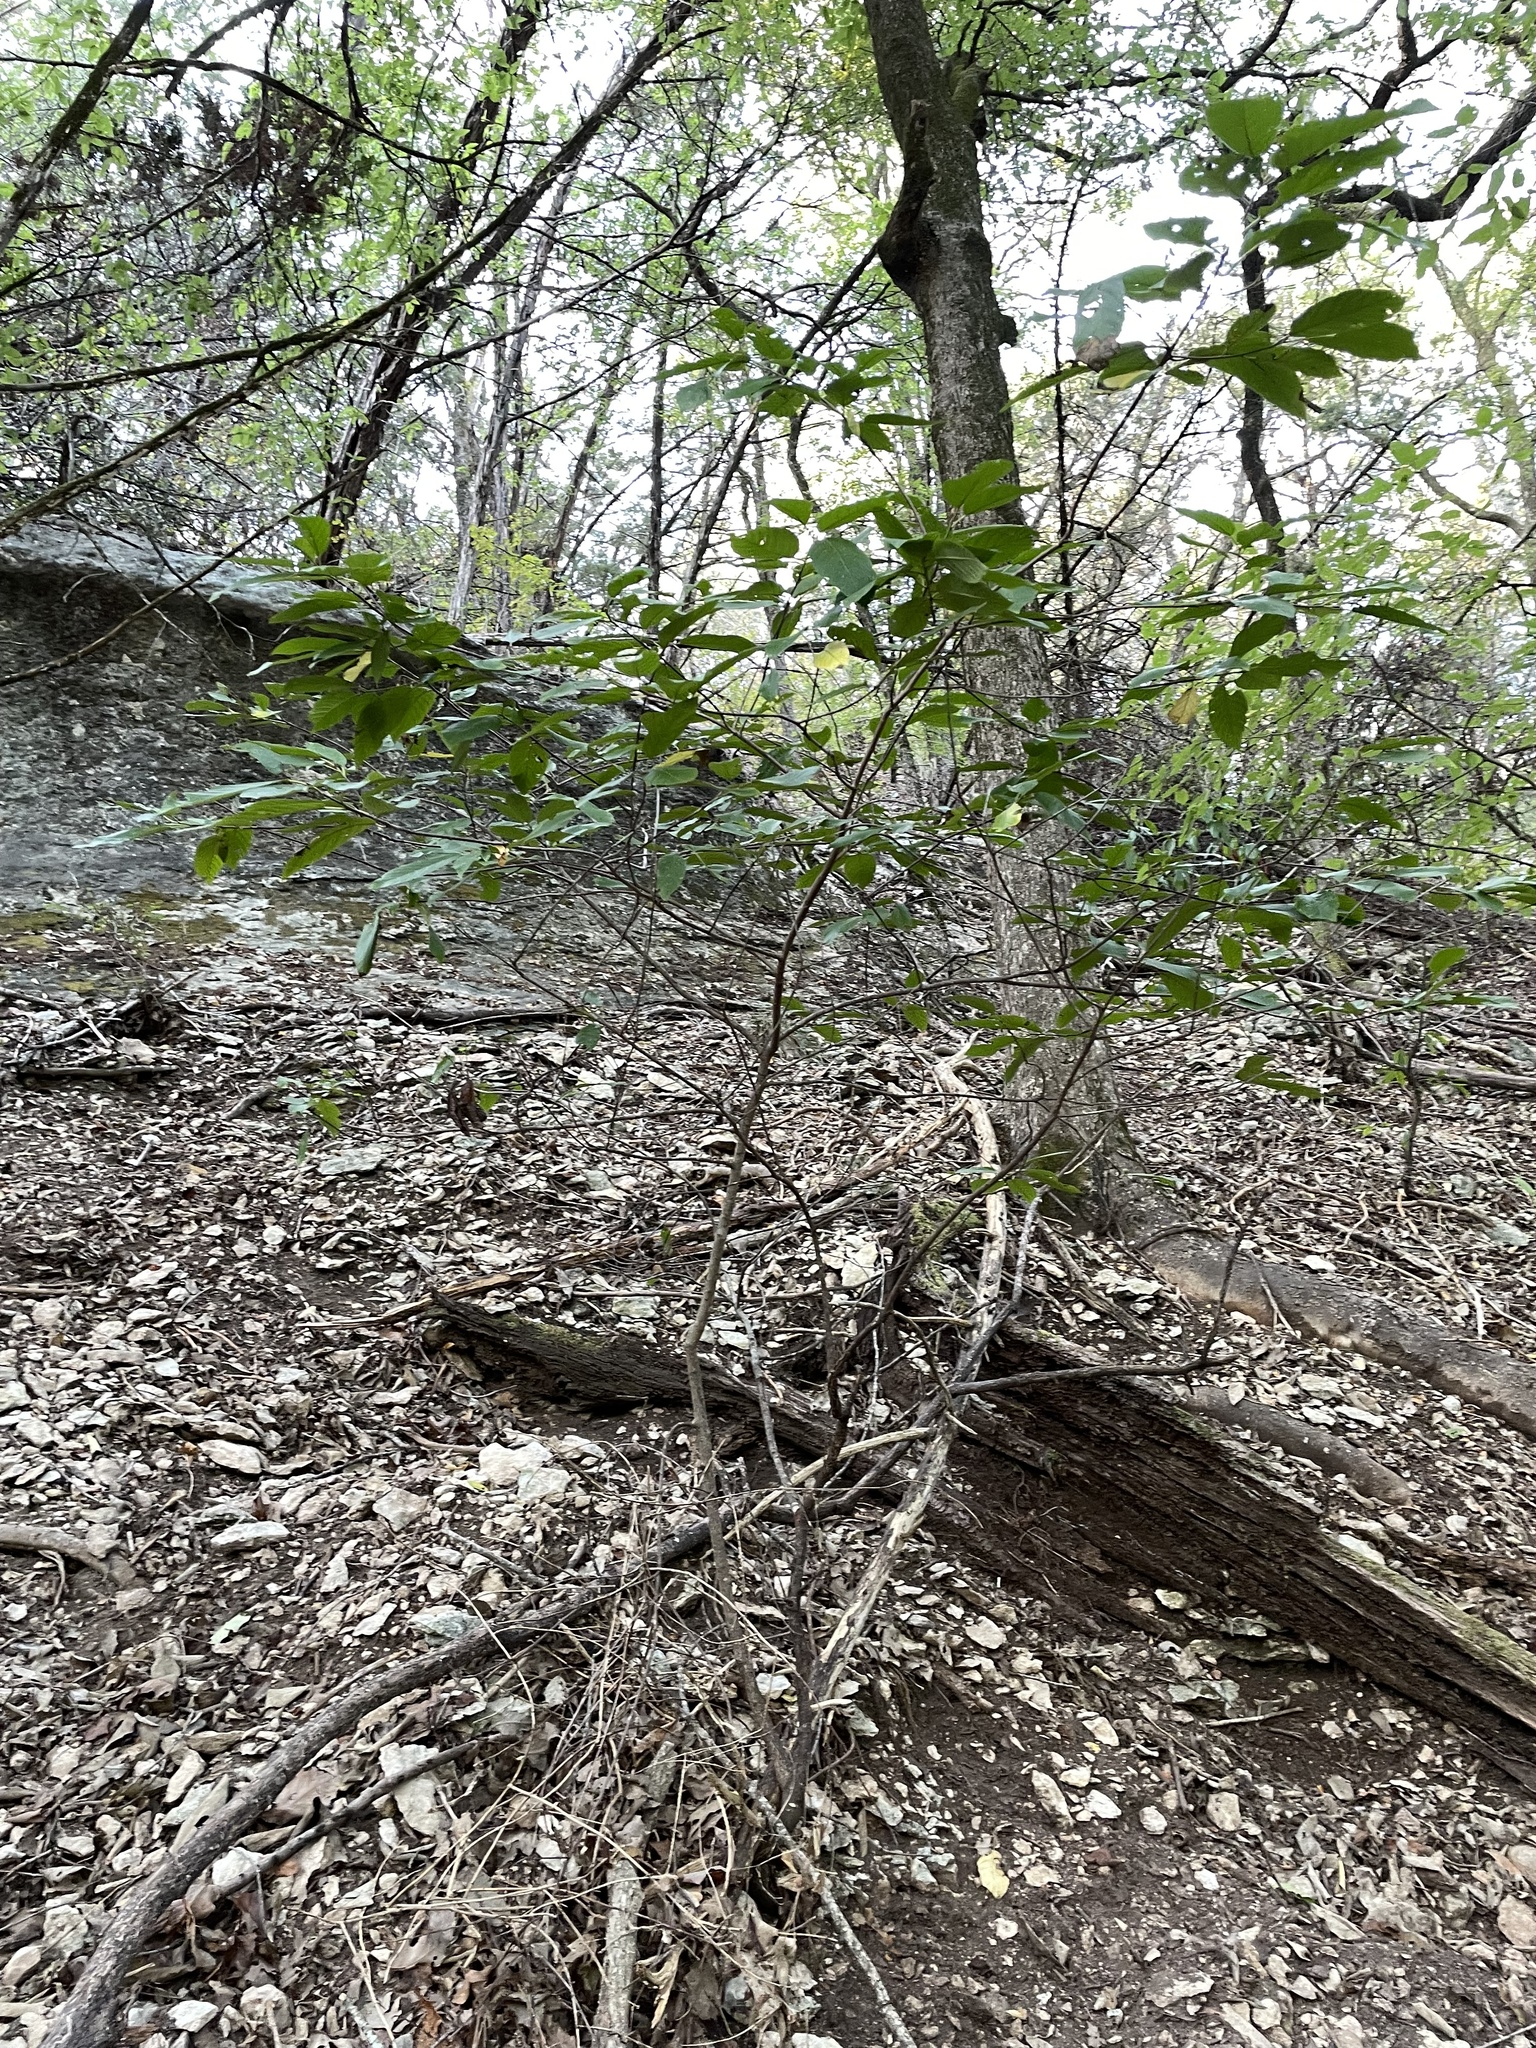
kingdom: Plantae
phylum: Tracheophyta
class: Magnoliopsida
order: Rosales
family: Rhamnaceae
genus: Frangula
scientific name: Frangula caroliniana
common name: Carolina buckthorn
